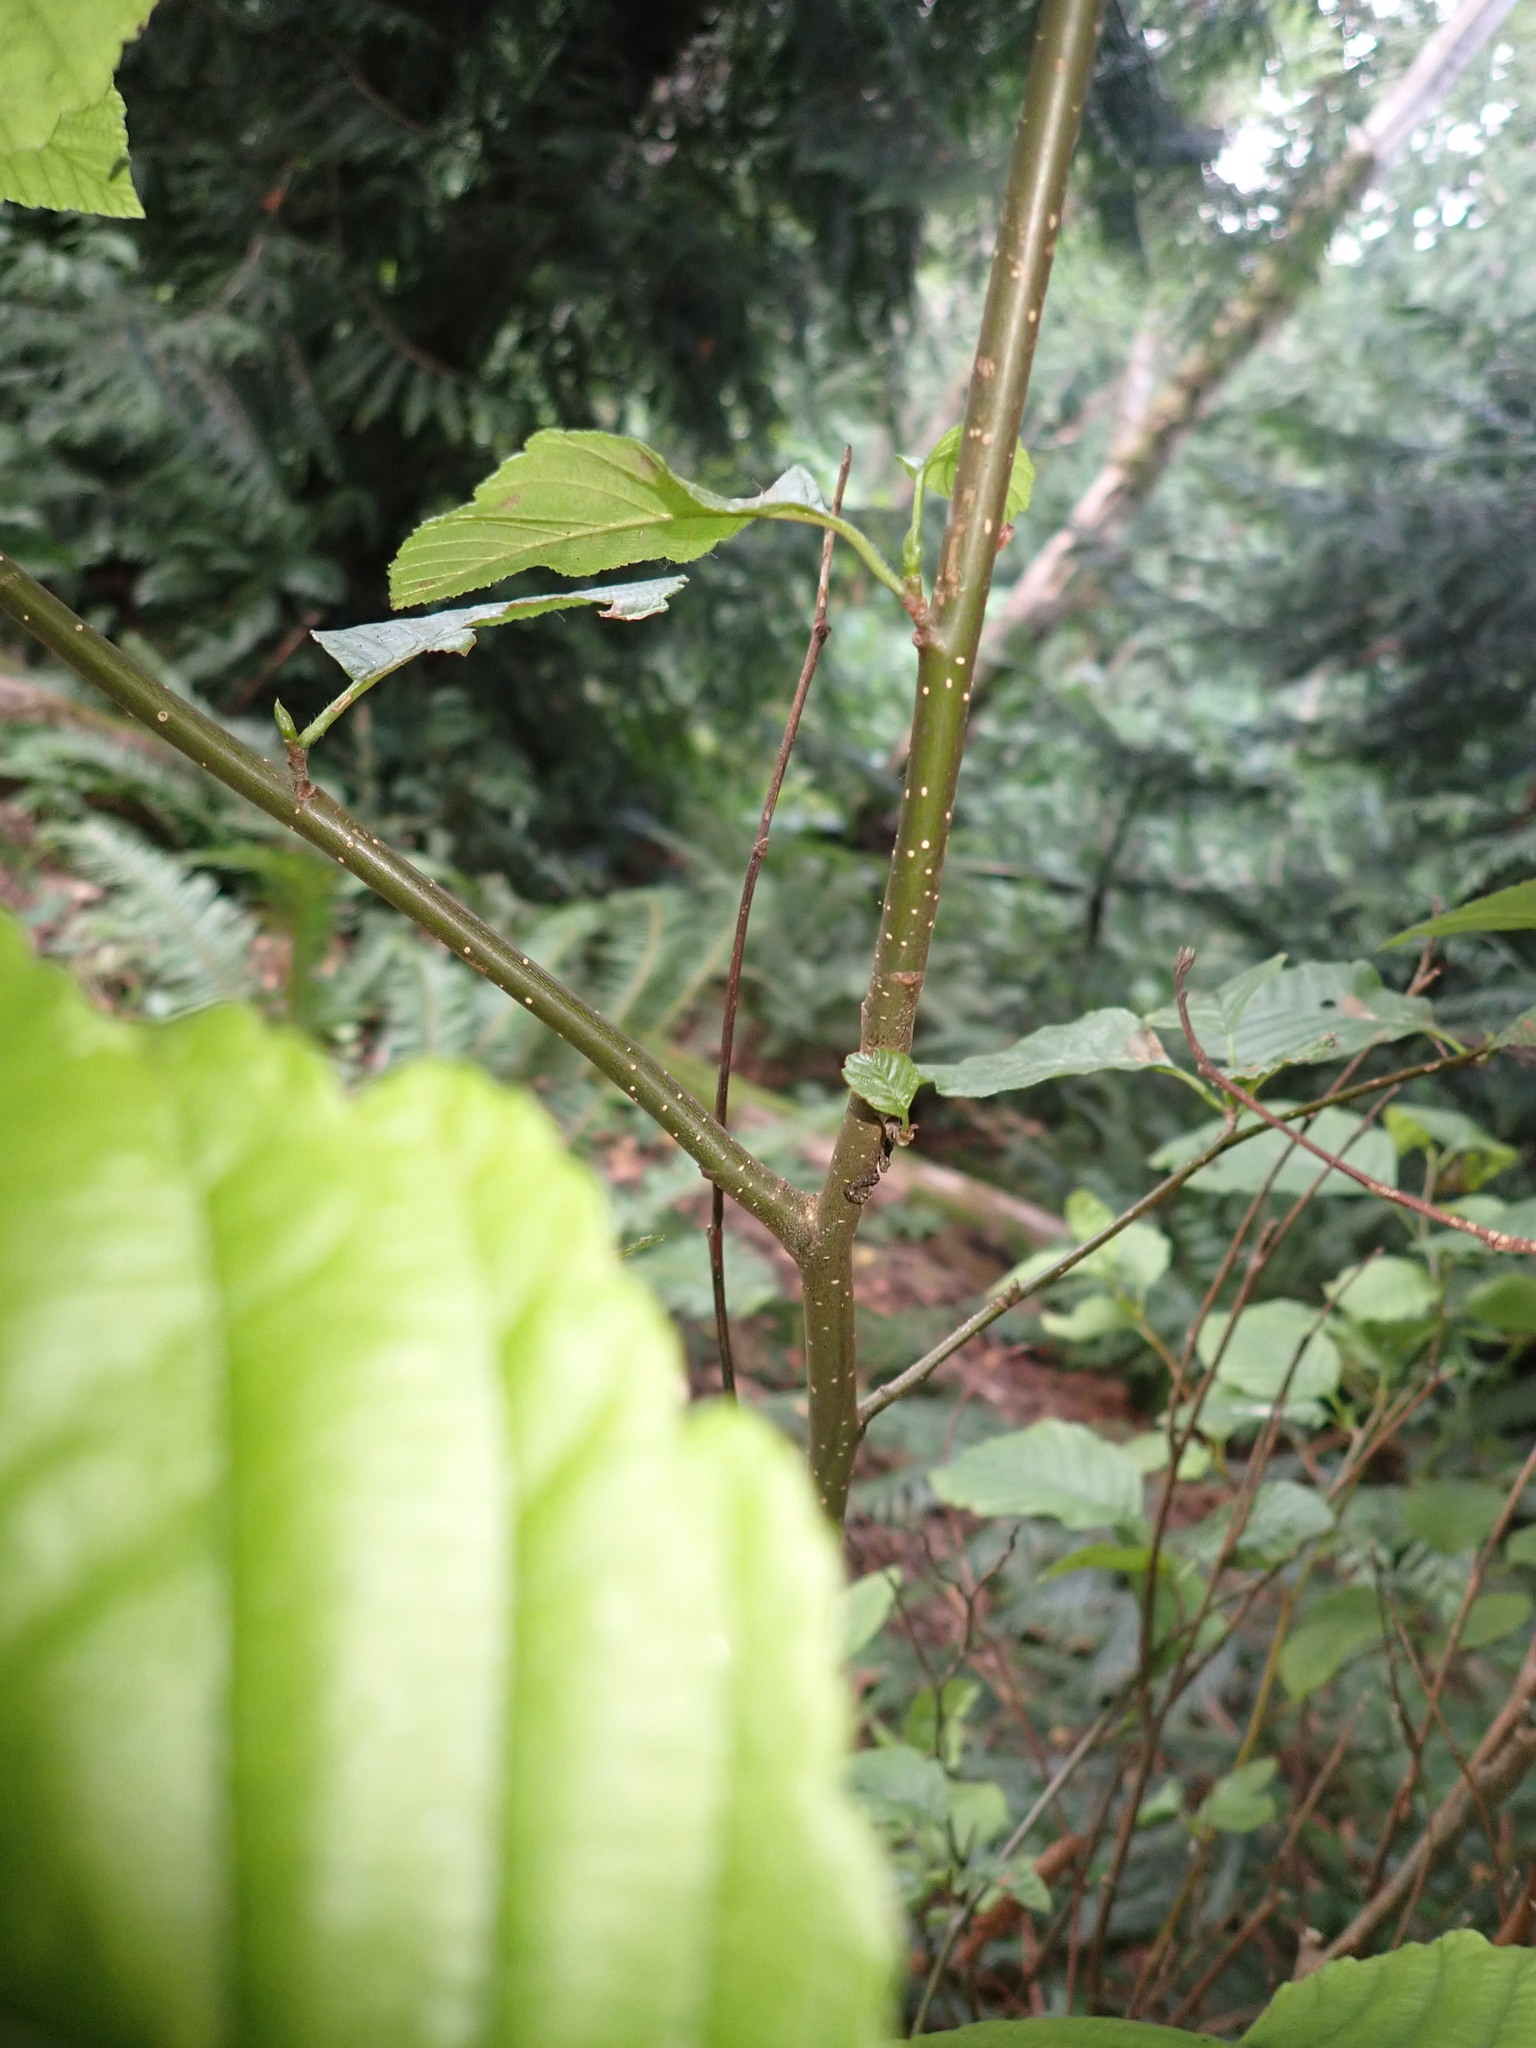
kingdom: Plantae
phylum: Tracheophyta
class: Magnoliopsida
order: Fagales
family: Betulaceae
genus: Alnus
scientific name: Alnus rubra
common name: Red alder
